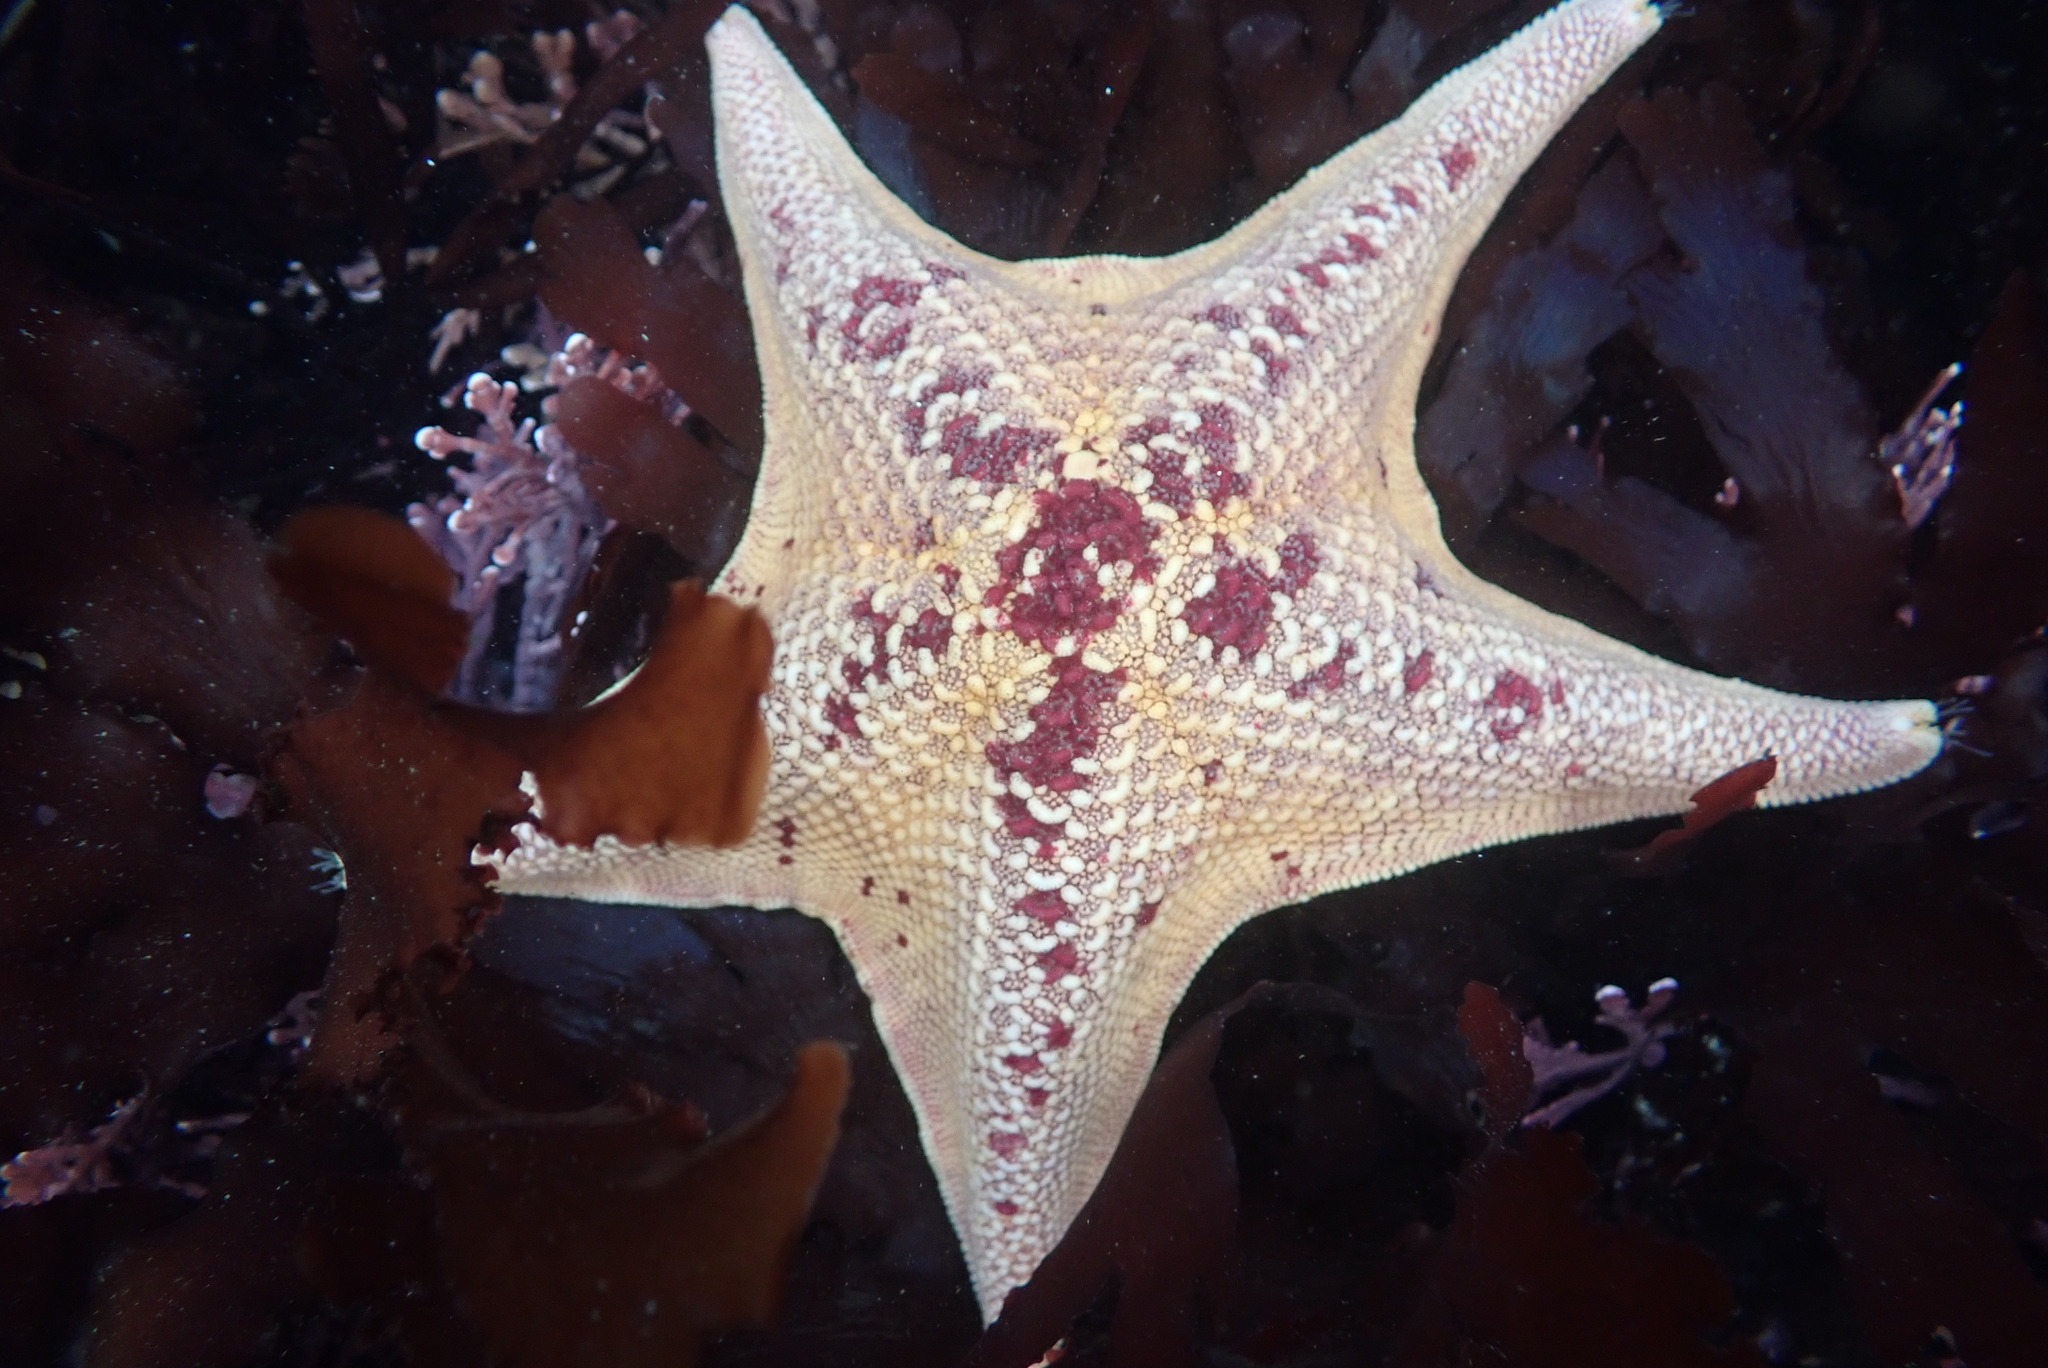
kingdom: Animalia
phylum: Echinodermata
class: Asteroidea
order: Valvatida
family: Asterinidae
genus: Patiria
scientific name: Patiria miniata
